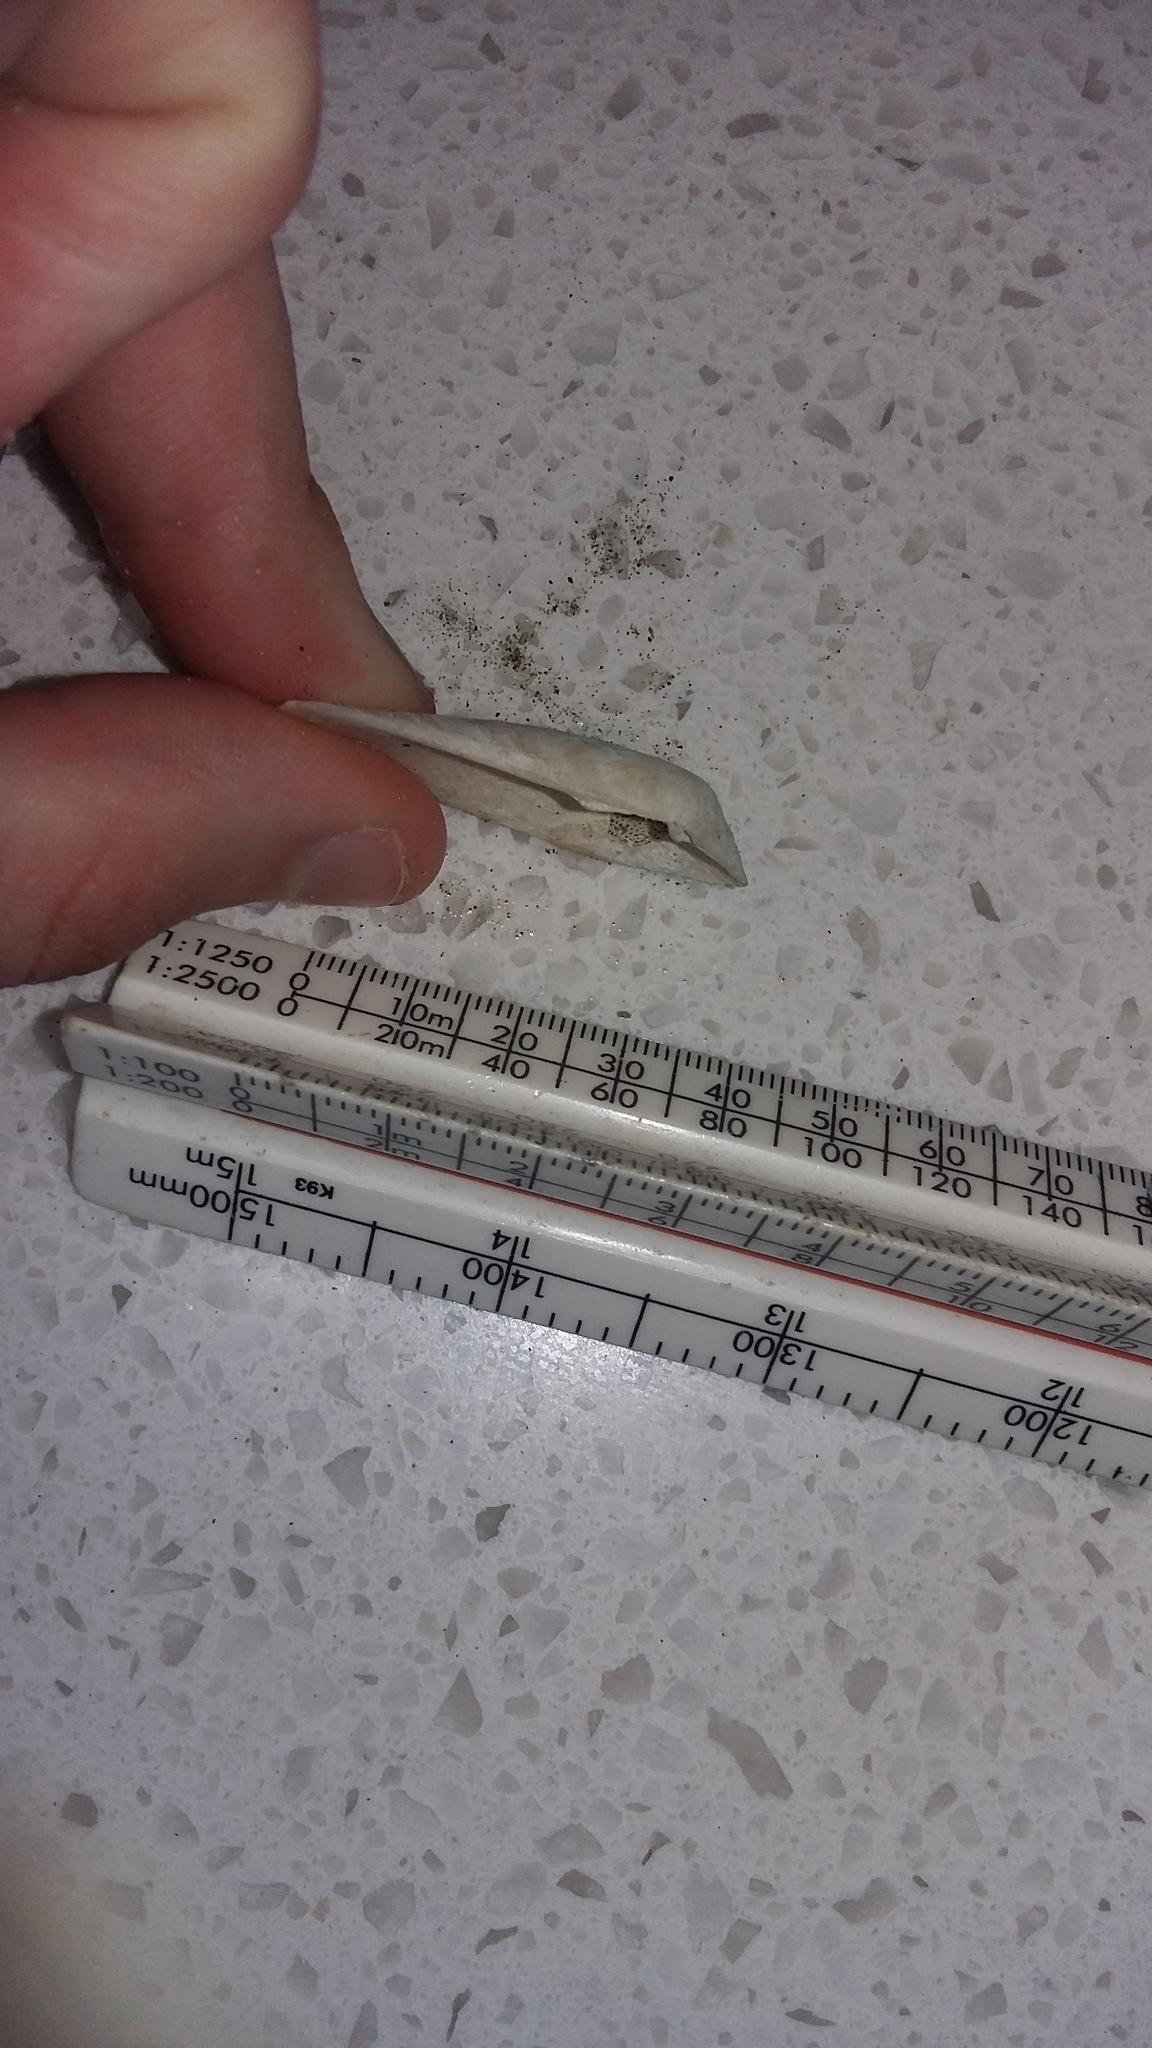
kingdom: Animalia
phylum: Mollusca
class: Bivalvia
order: Venerida
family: Mesodesmatidae
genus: Paphies
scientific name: Paphies subtriangulata
